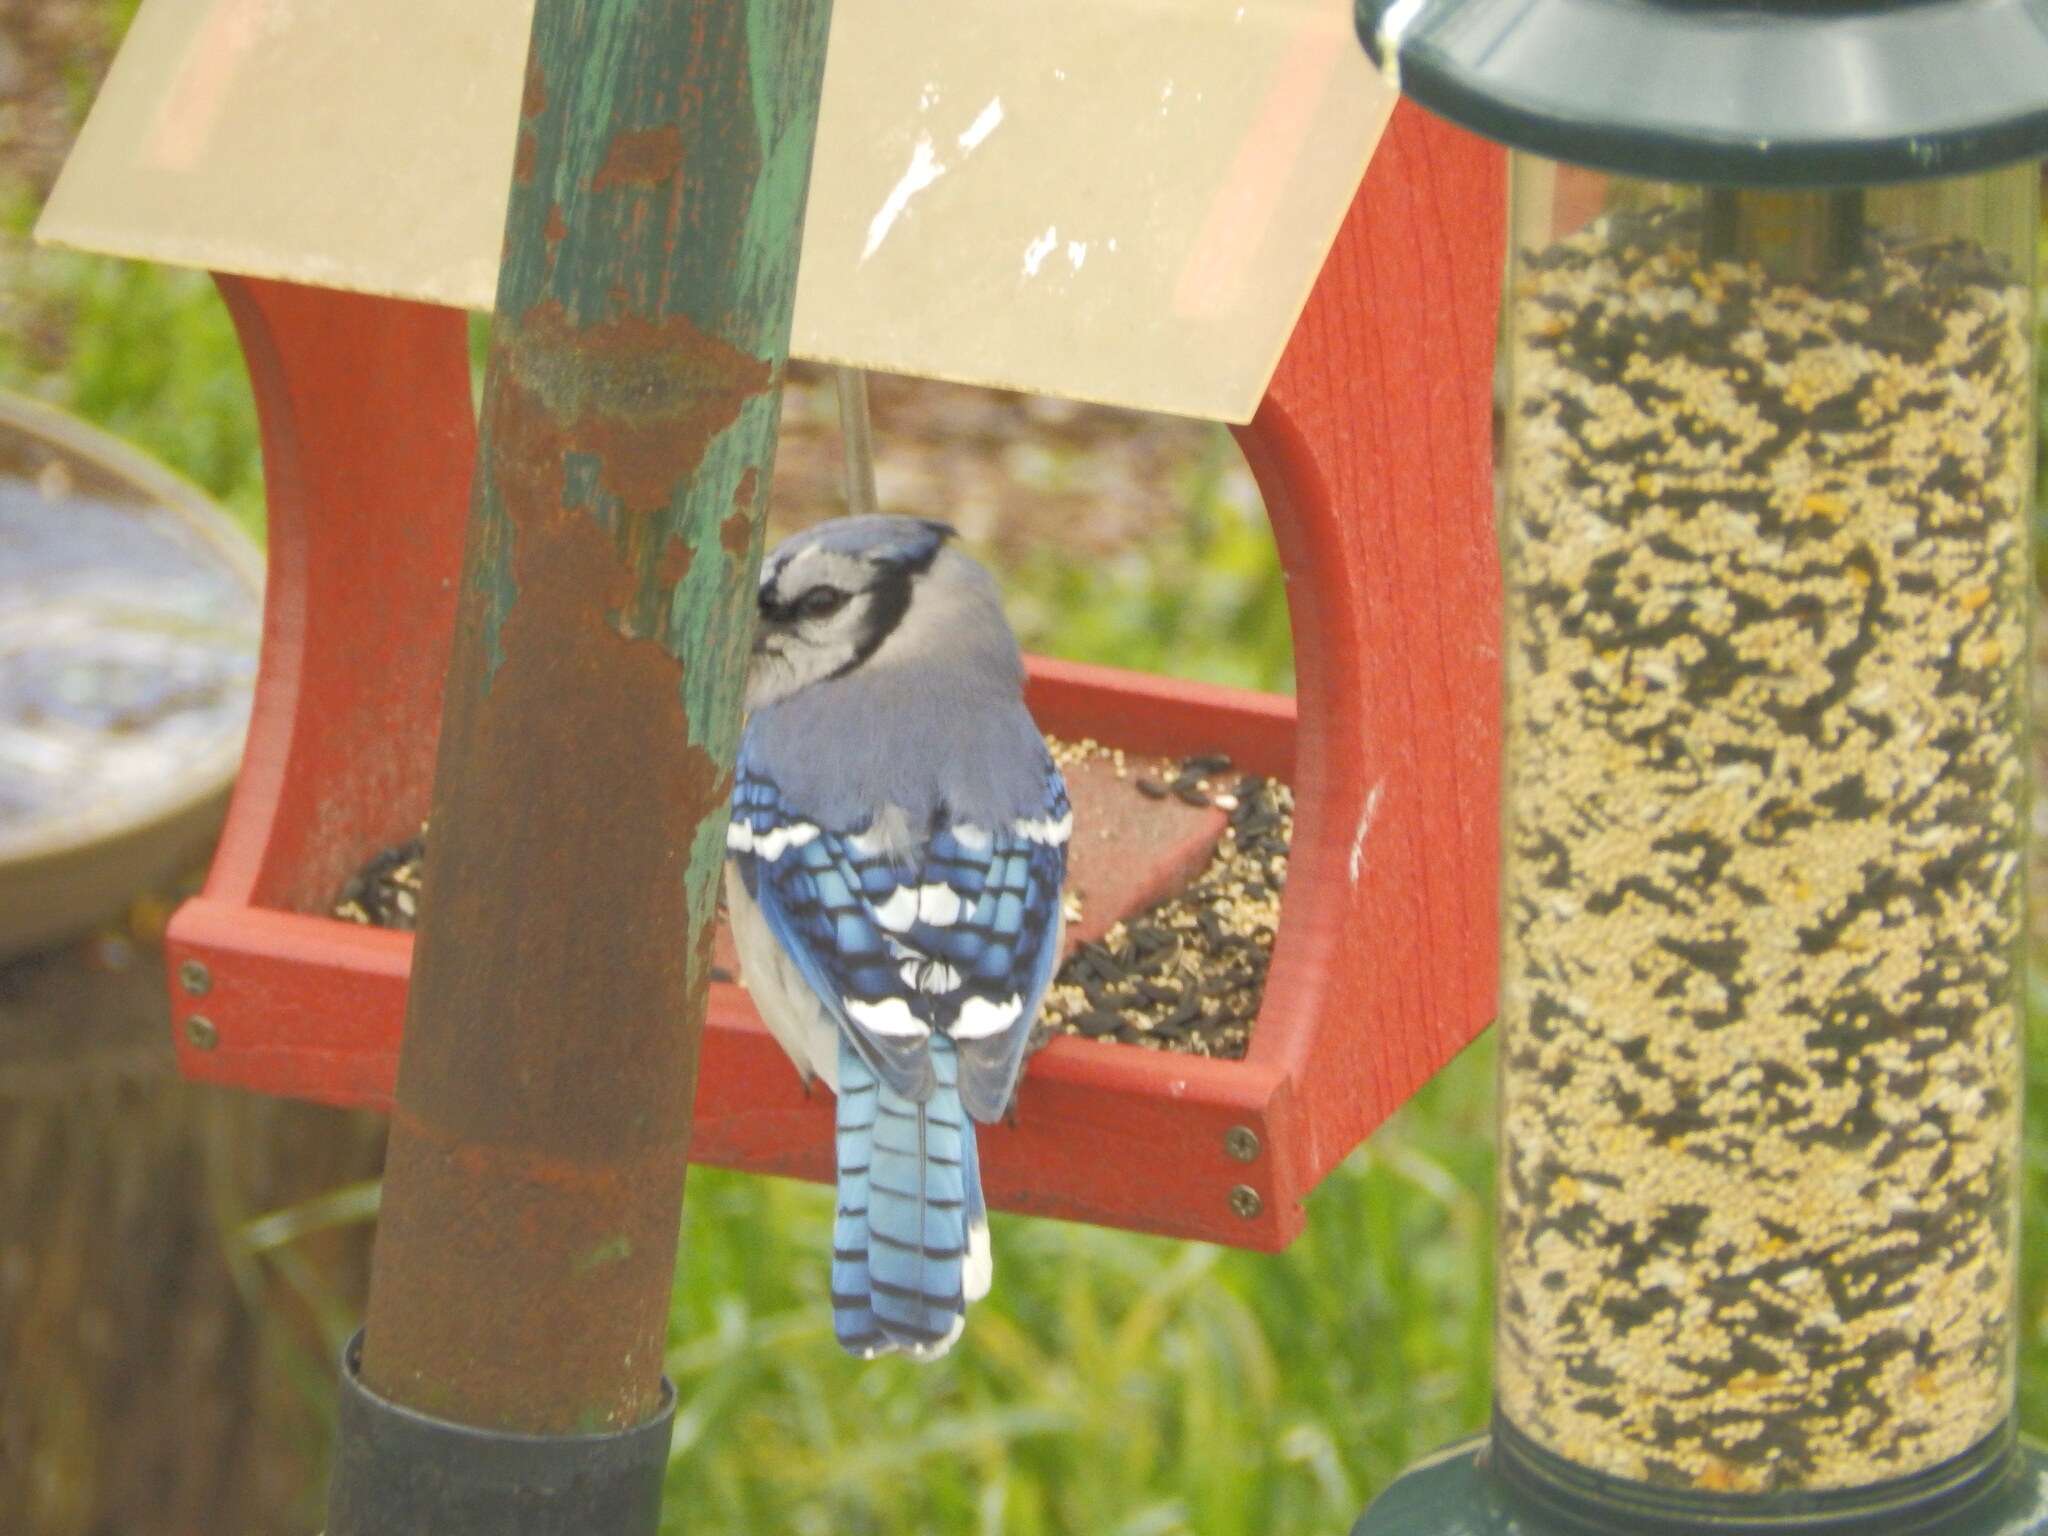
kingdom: Animalia
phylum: Chordata
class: Aves
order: Passeriformes
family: Corvidae
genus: Cyanocitta
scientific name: Cyanocitta cristata
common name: Blue jay
